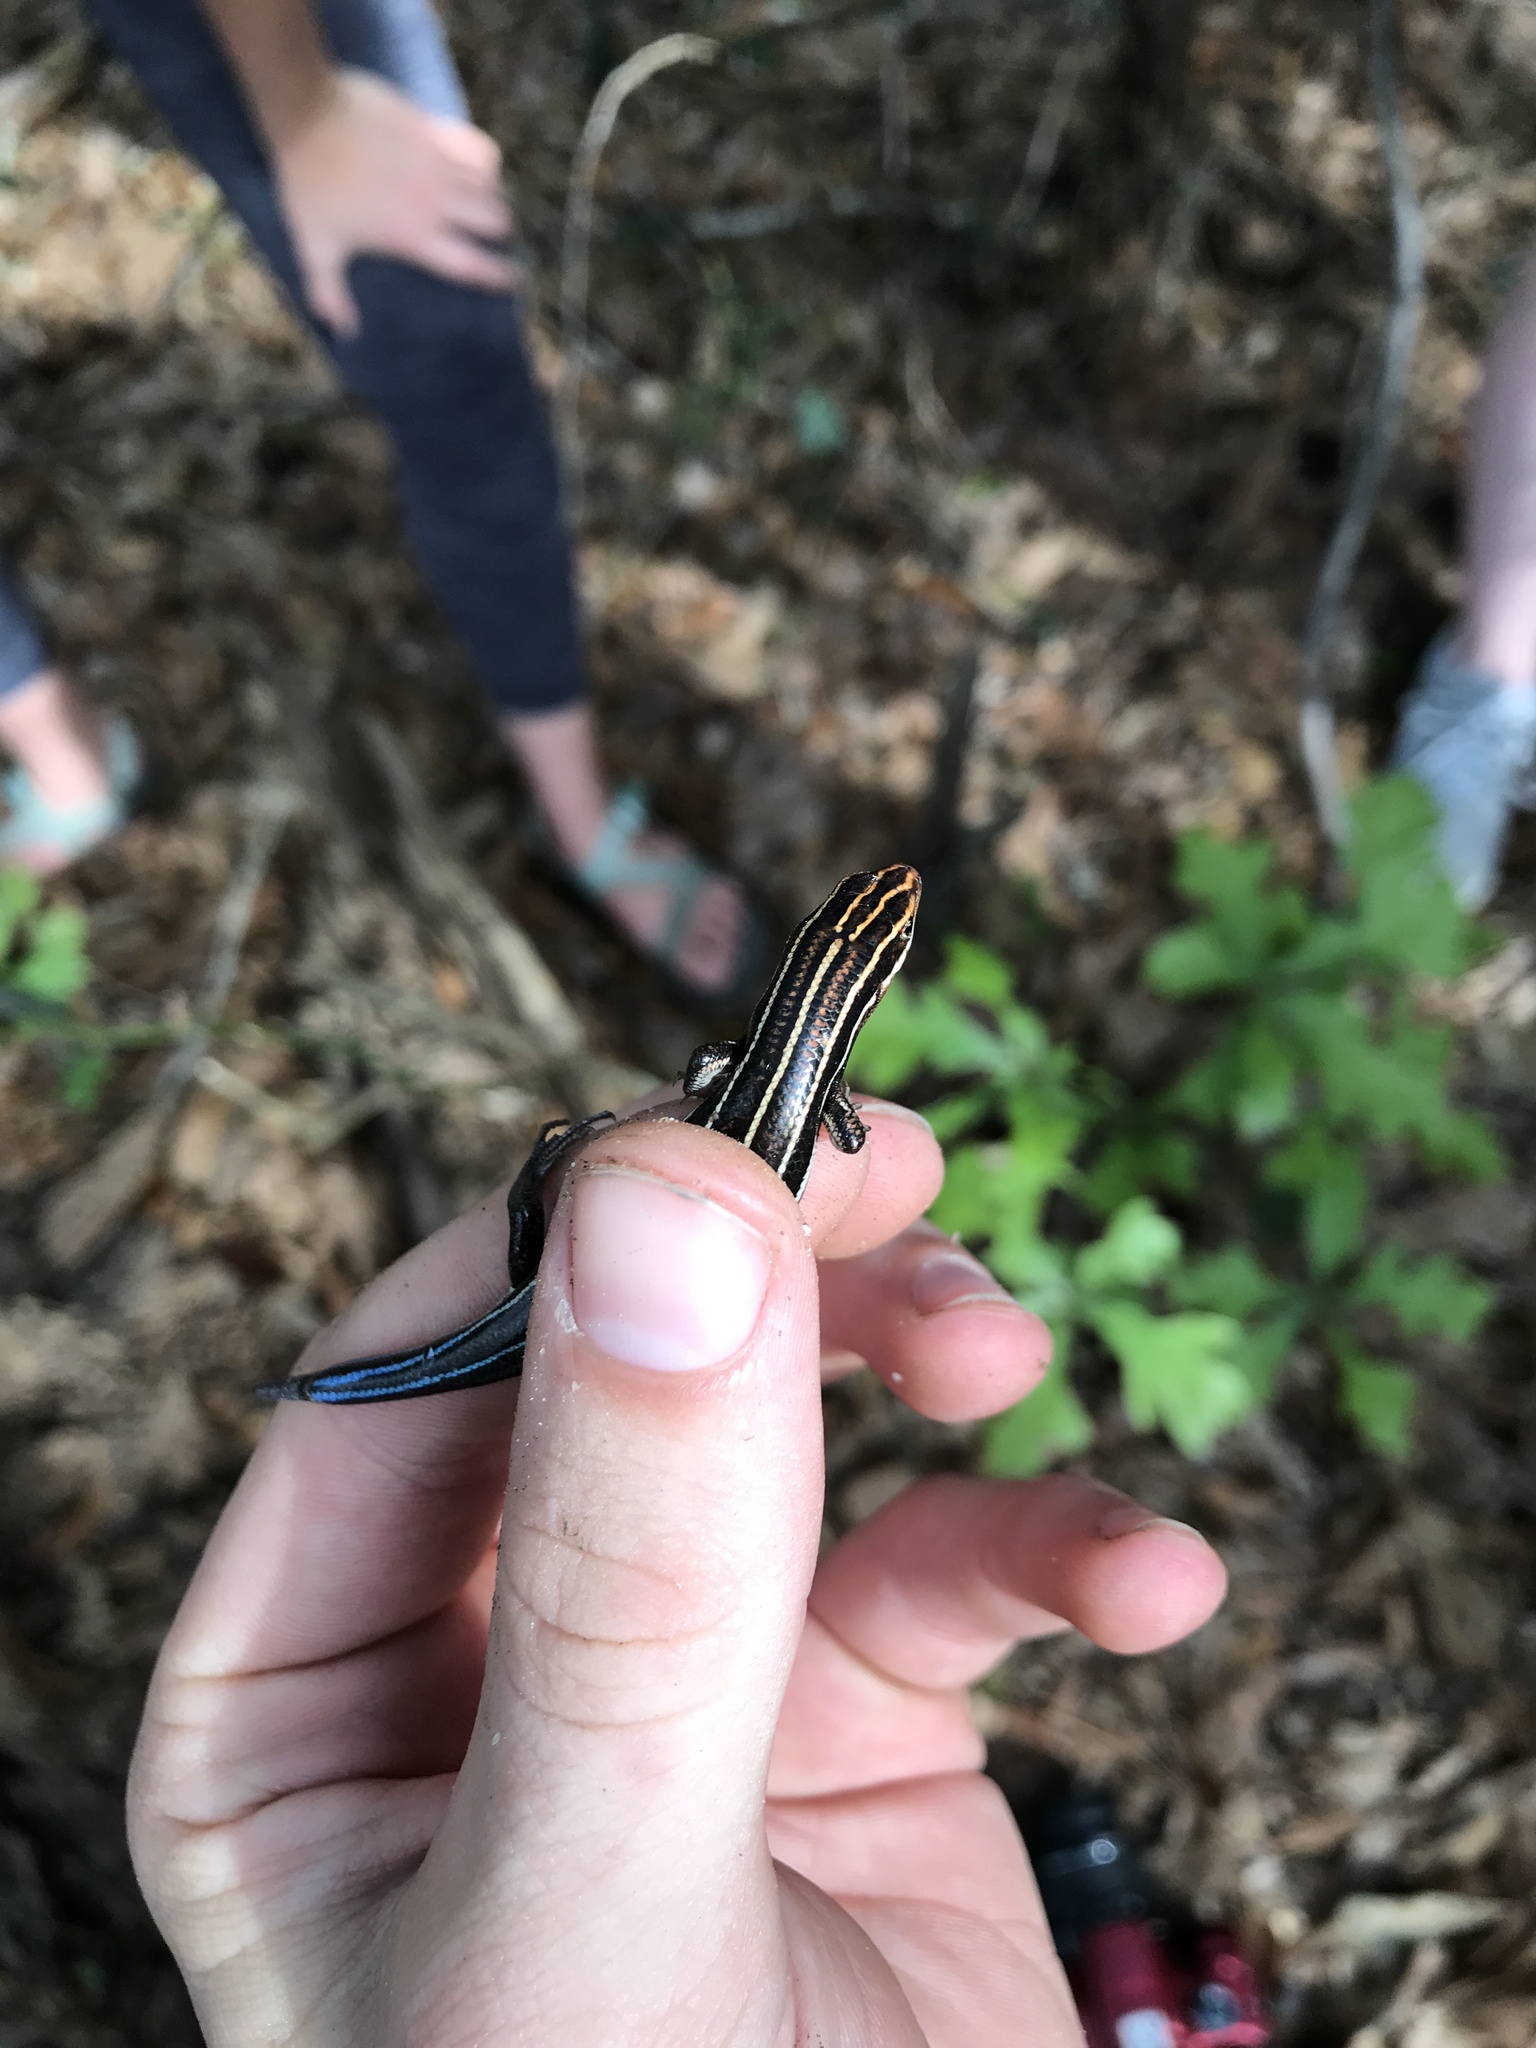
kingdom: Animalia
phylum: Chordata
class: Squamata
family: Scincidae
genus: Plestiodon
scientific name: Plestiodon inexpectatus
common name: Southeastern five-lined skink
